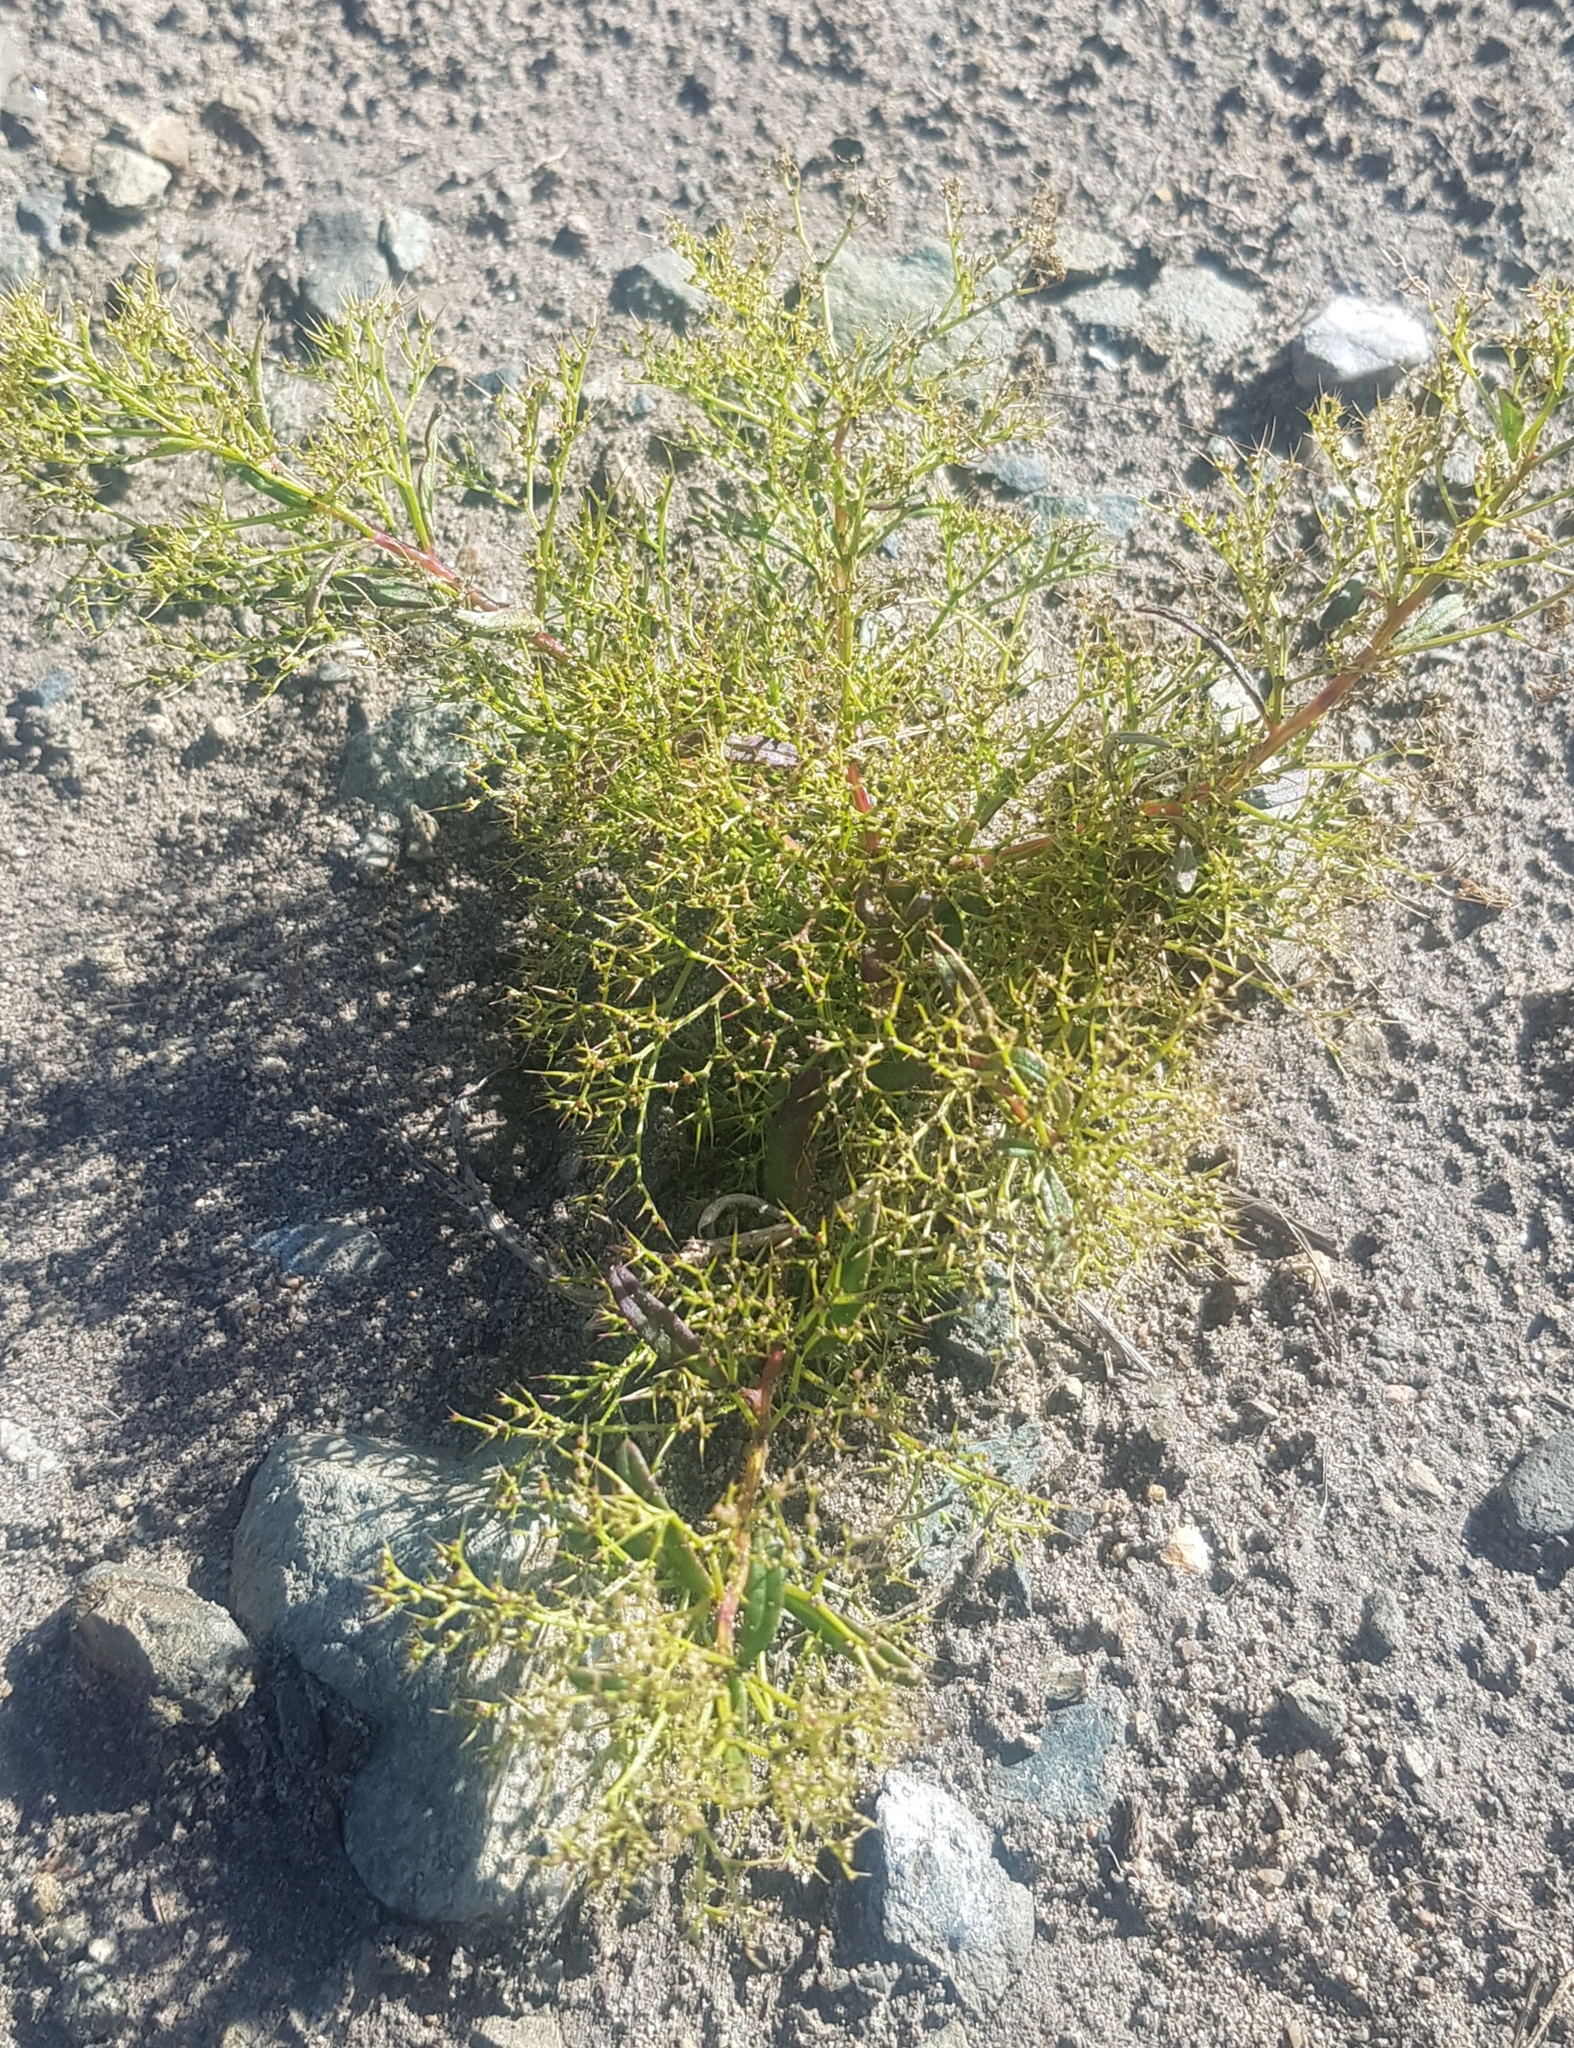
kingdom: Plantae
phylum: Tracheophyta
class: Magnoliopsida
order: Caryophyllales
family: Amaranthaceae
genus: Teloxys
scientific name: Teloxys aristata
